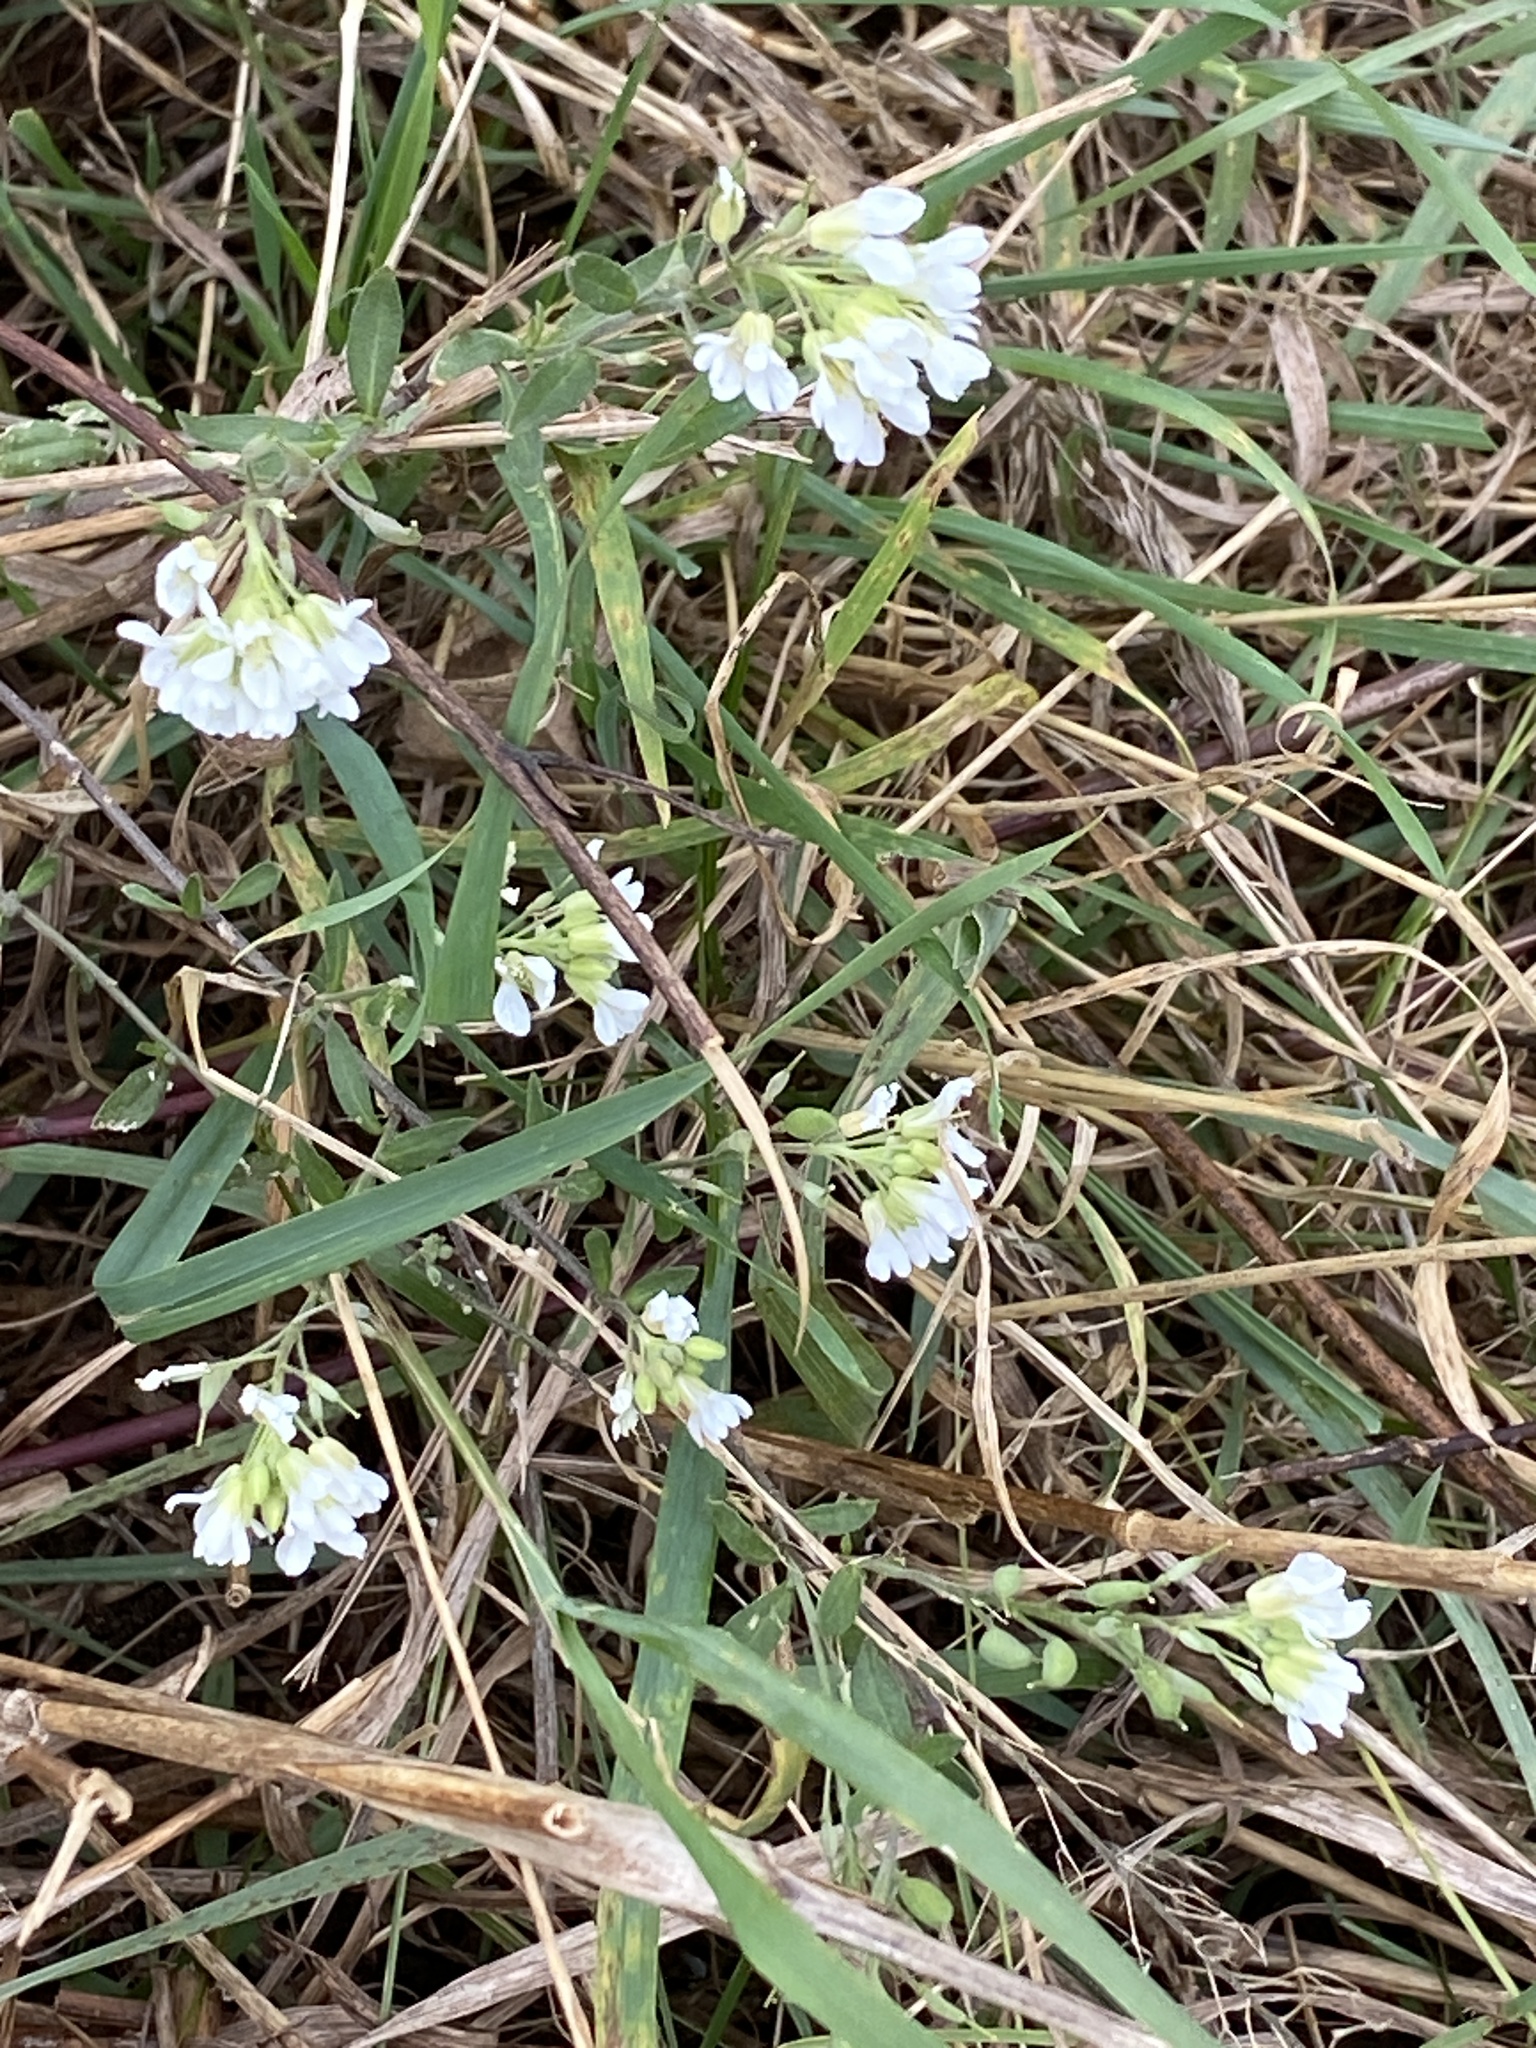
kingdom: Plantae
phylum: Tracheophyta
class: Magnoliopsida
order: Brassicales
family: Brassicaceae
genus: Berteroa
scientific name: Berteroa incana
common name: Hoary alison
